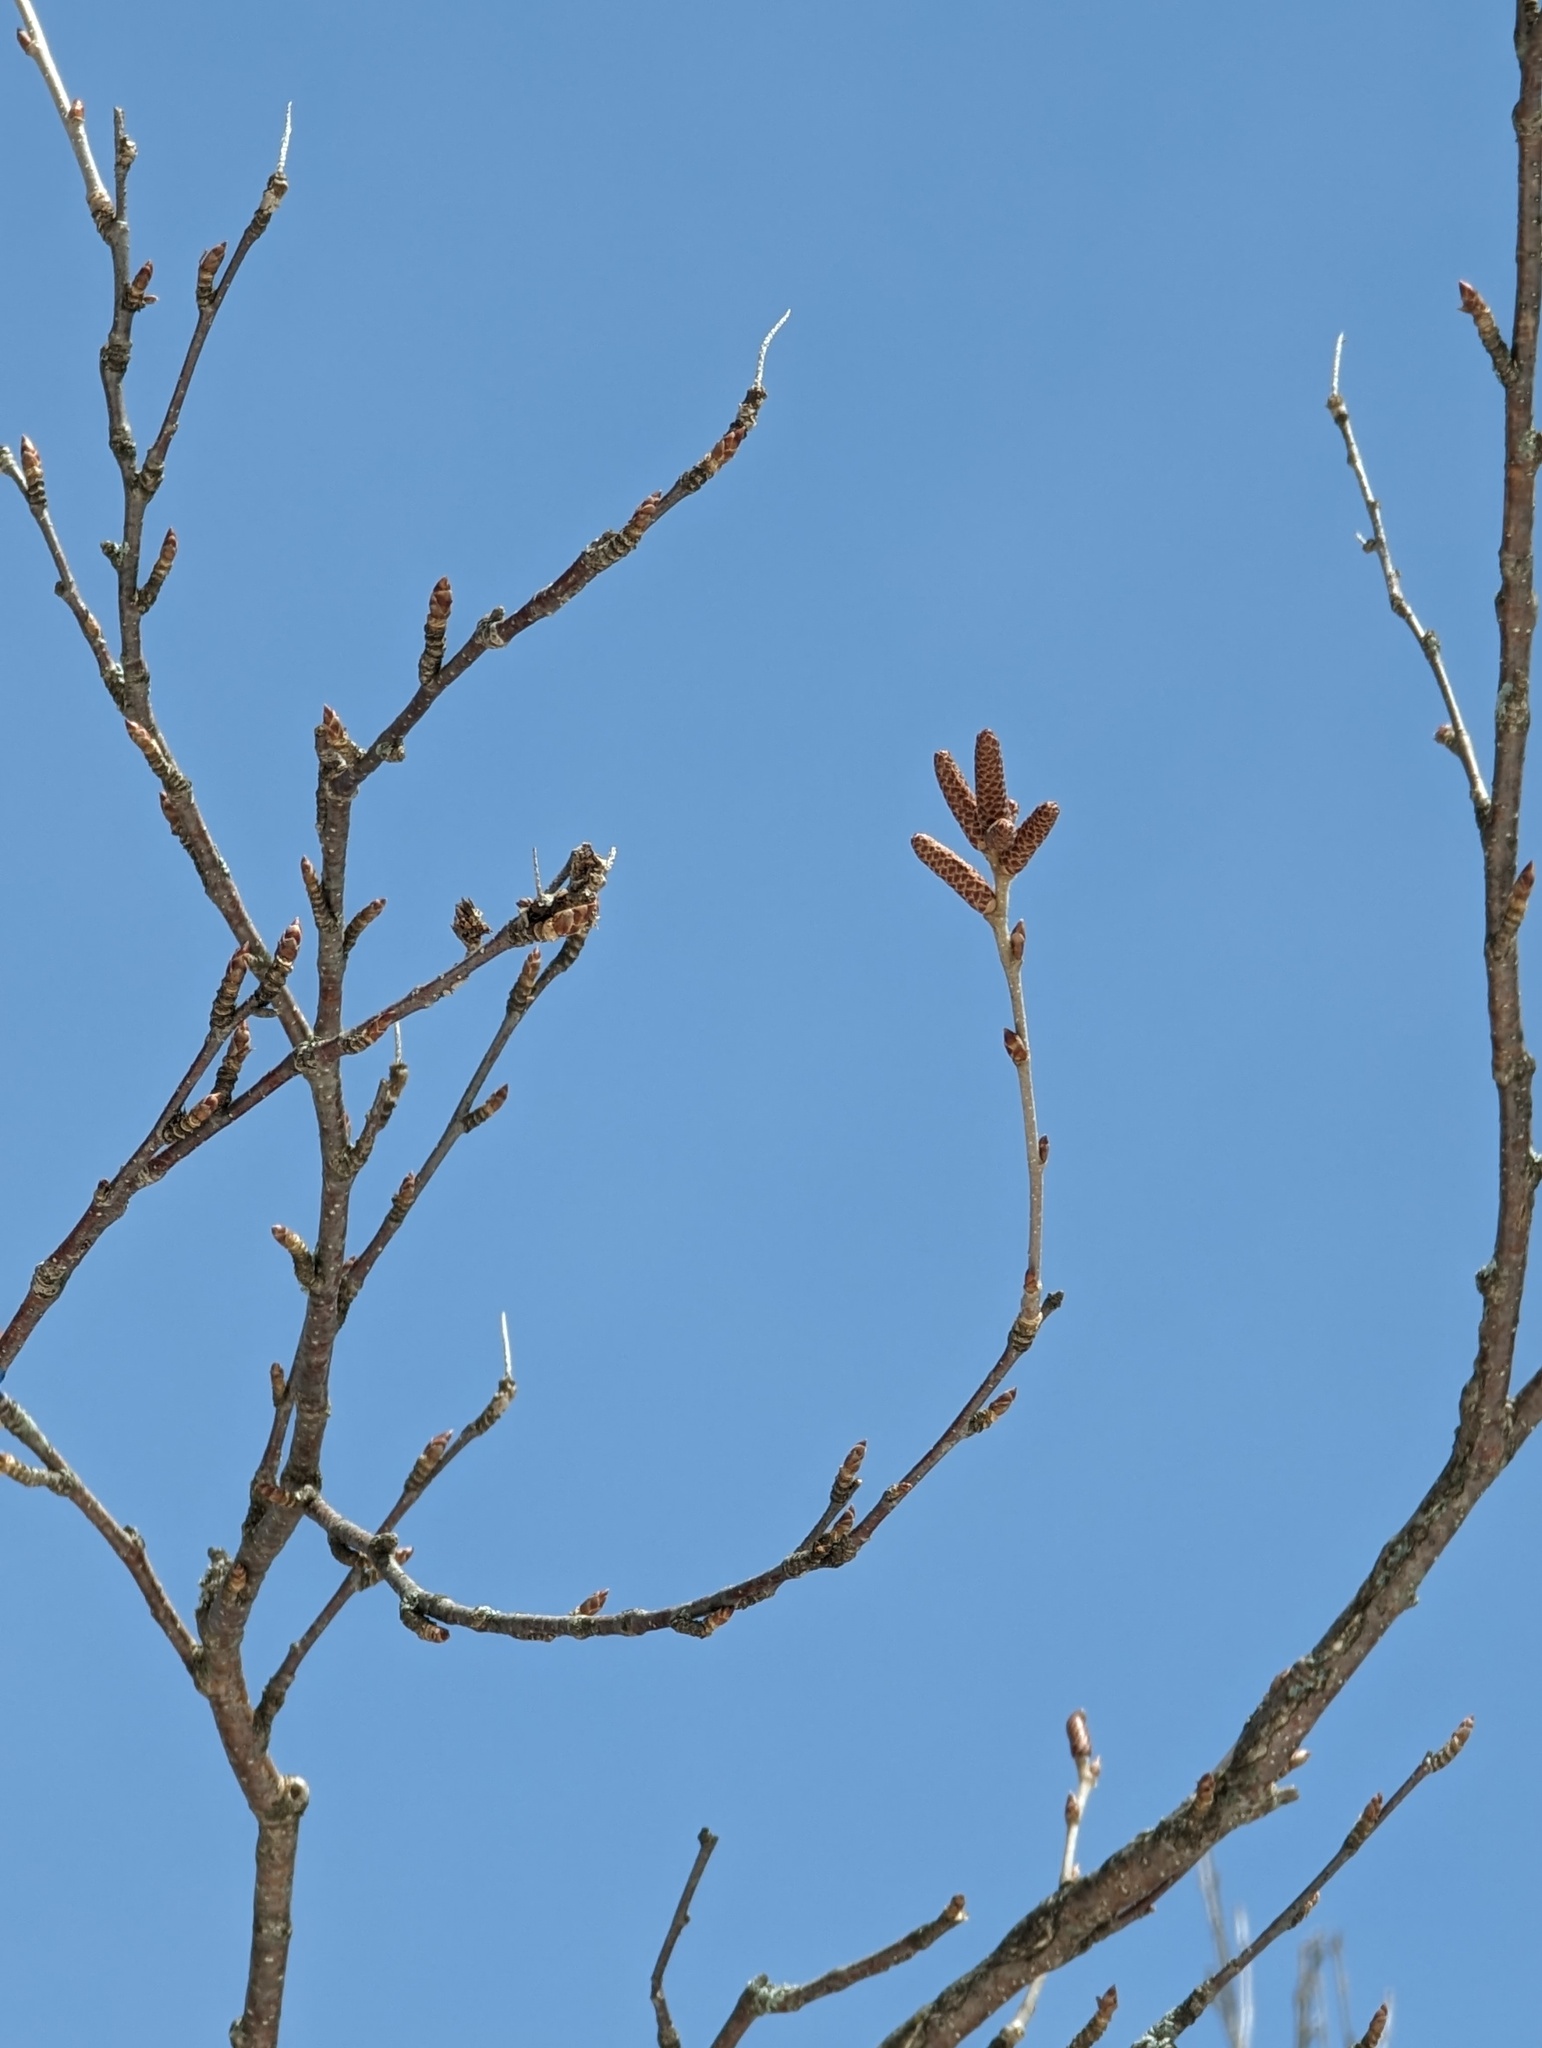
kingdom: Plantae
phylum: Tracheophyta
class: Magnoliopsida
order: Fagales
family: Betulaceae
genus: Betula
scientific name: Betula alleghaniensis
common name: Yellow birch
